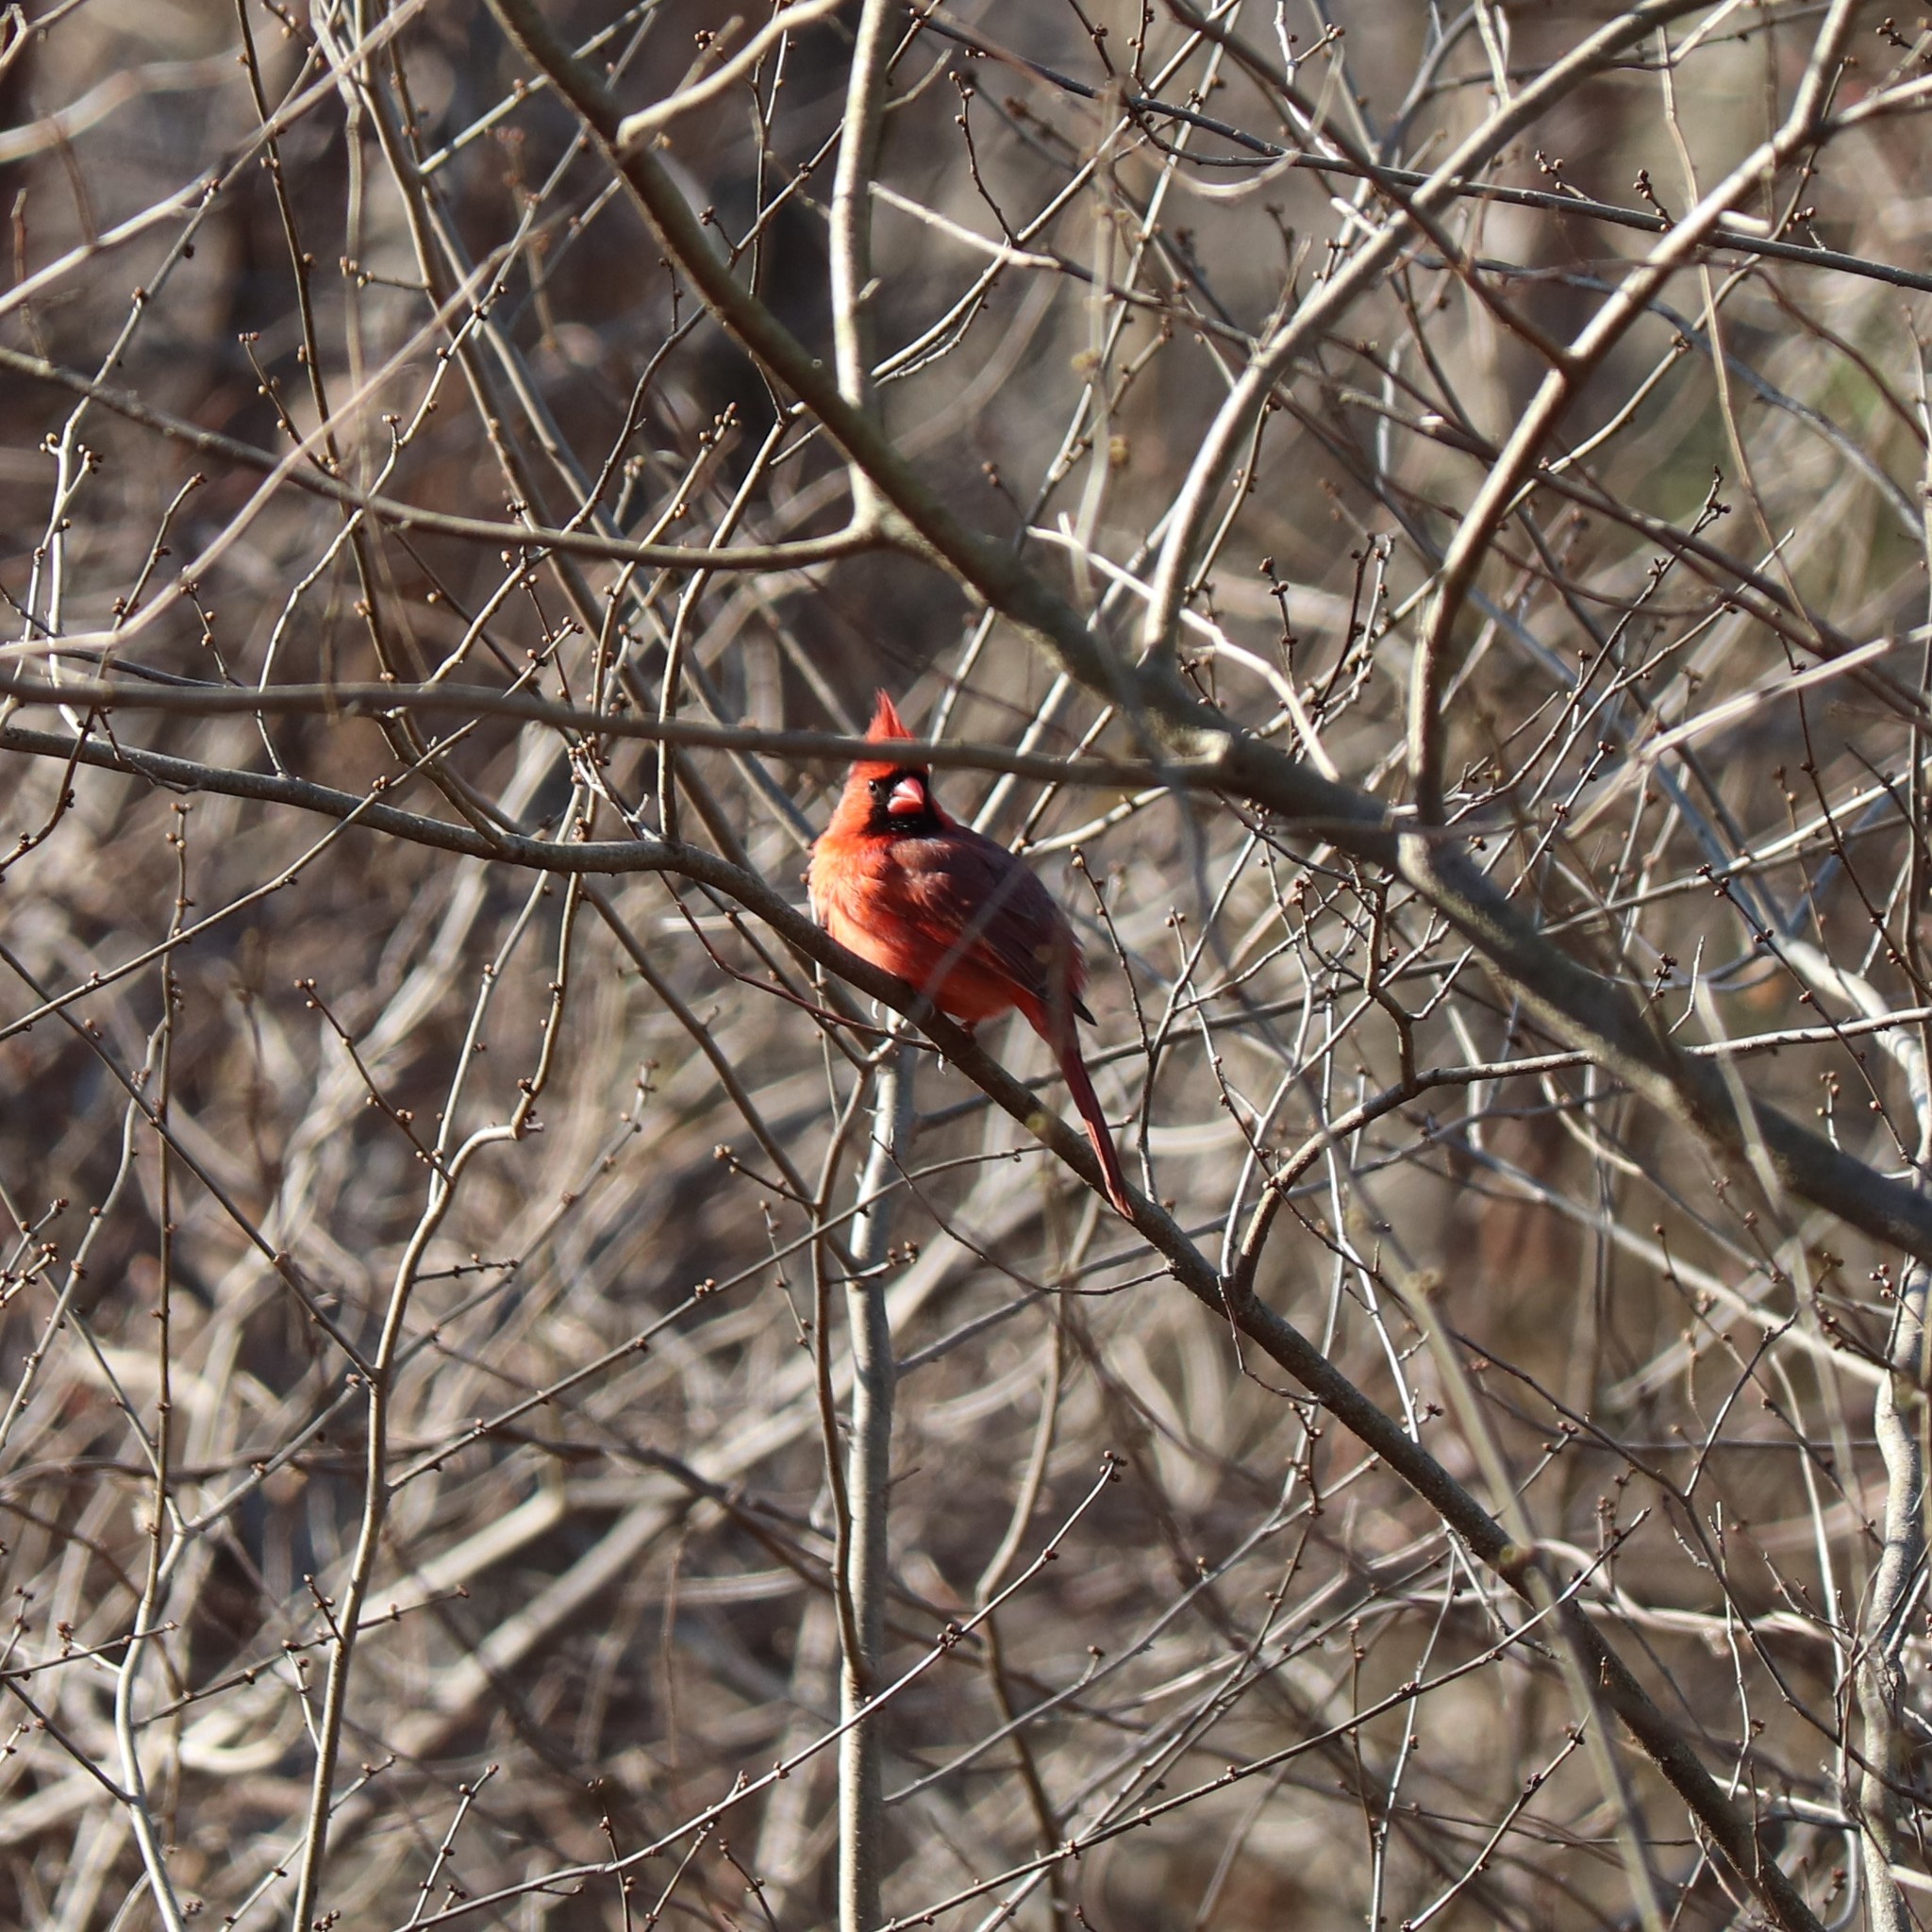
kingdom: Animalia
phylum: Chordata
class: Aves
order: Passeriformes
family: Cardinalidae
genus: Cardinalis
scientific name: Cardinalis cardinalis
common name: Northern cardinal
